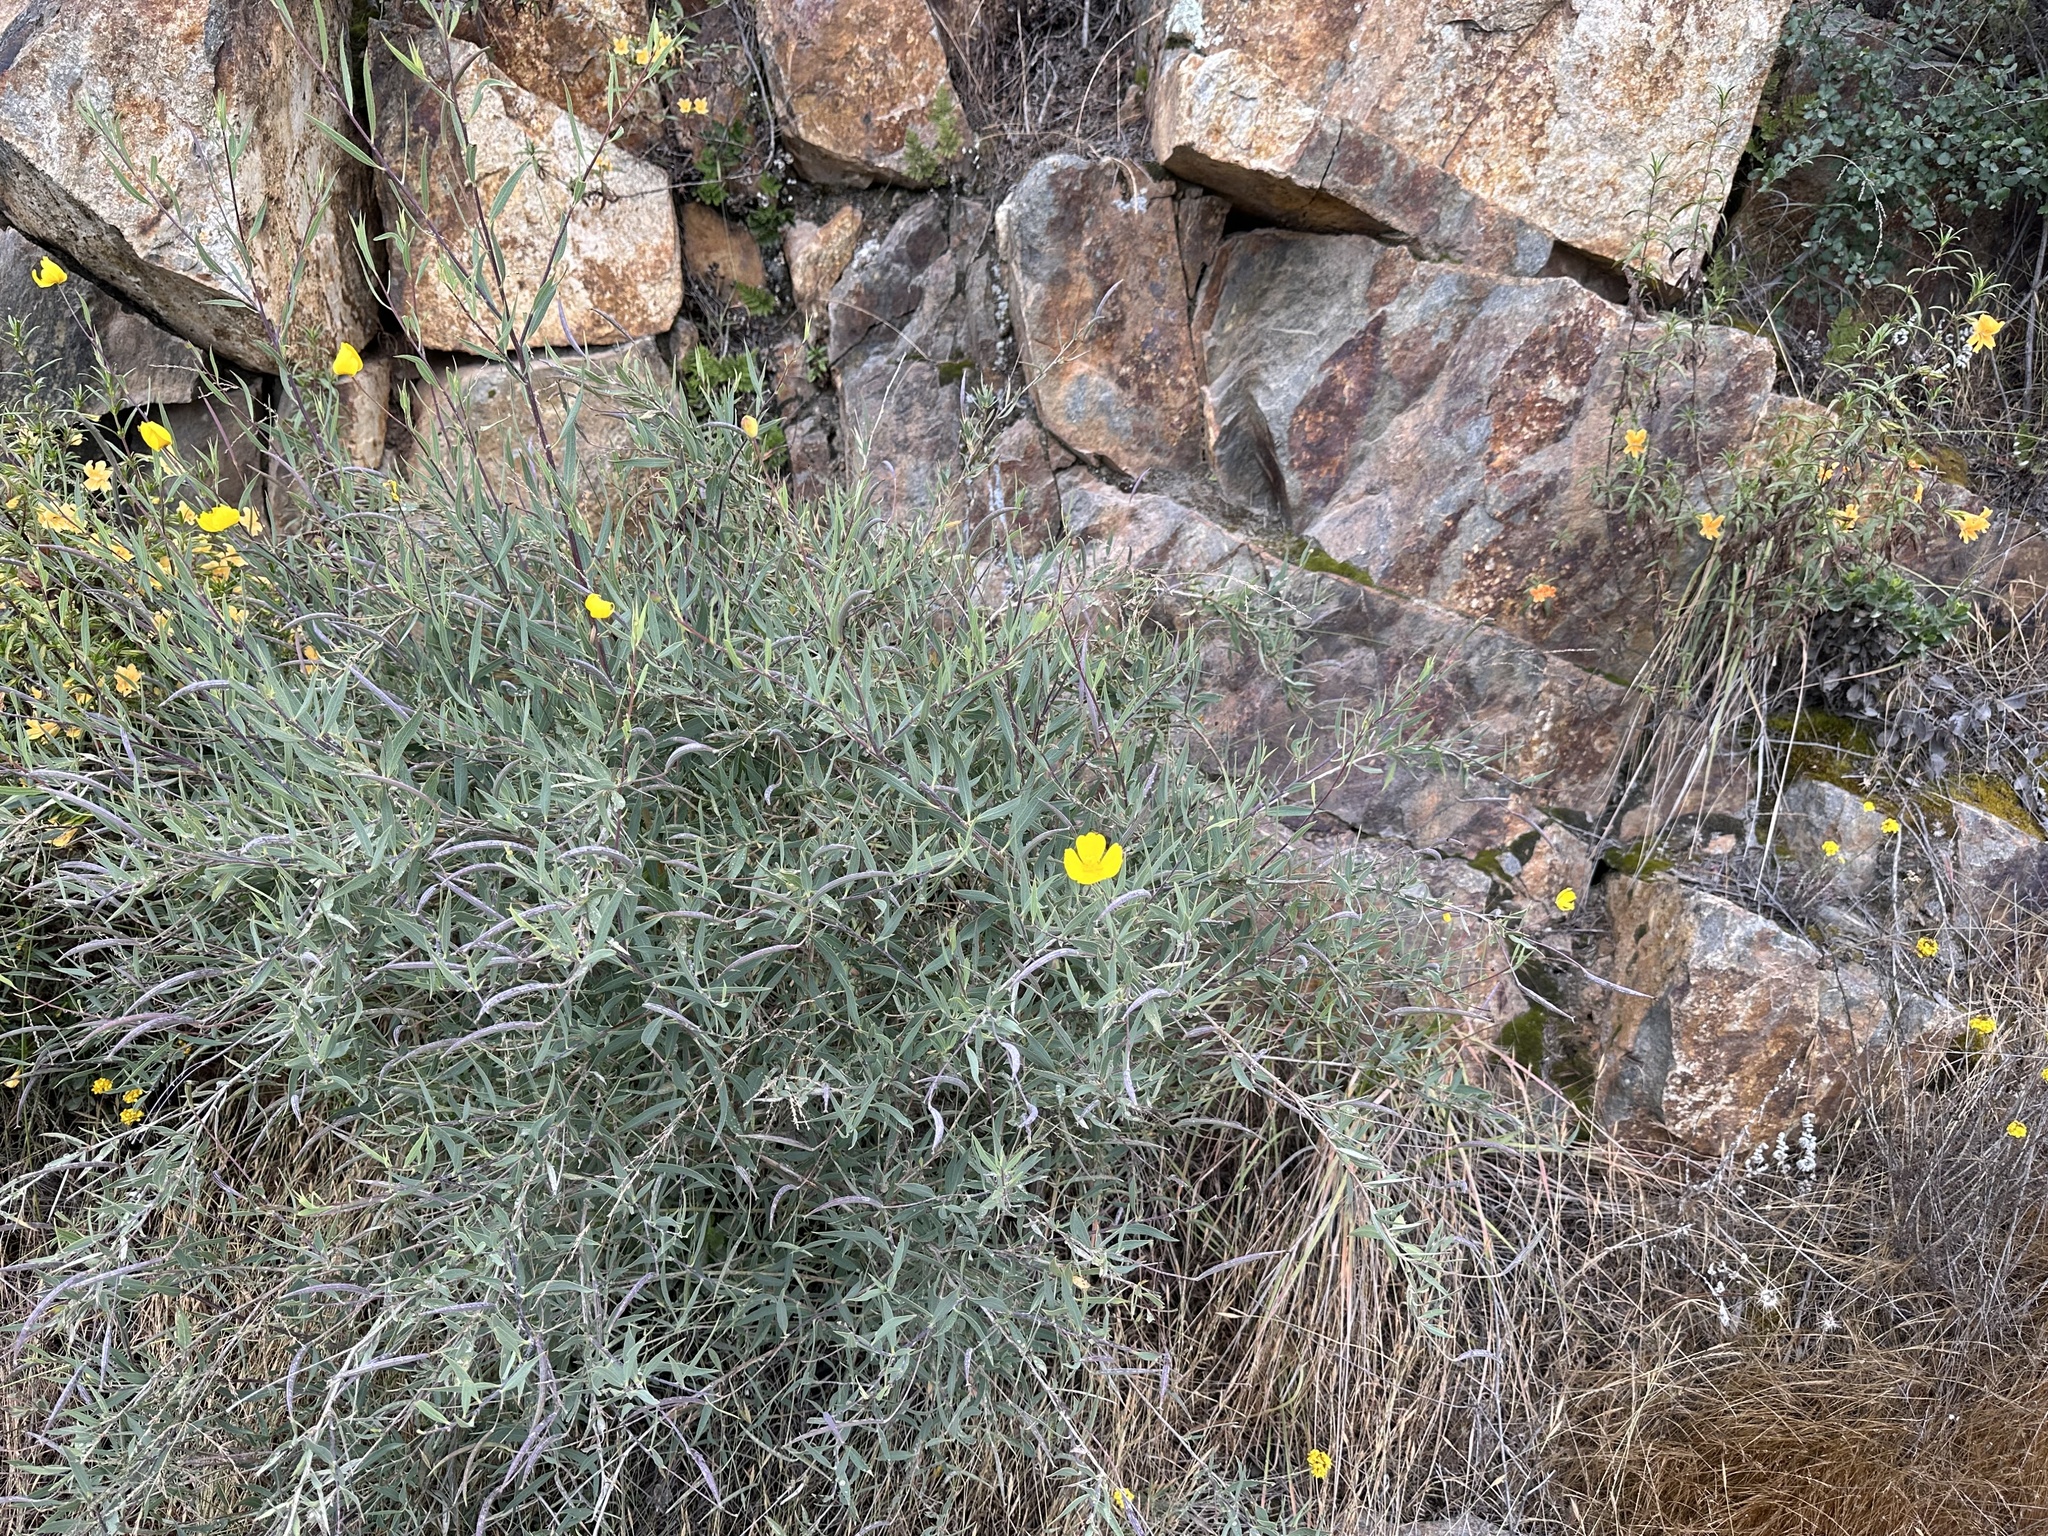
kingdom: Plantae
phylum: Tracheophyta
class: Magnoliopsida
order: Ranunculales
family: Papaveraceae
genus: Dendromecon
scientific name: Dendromecon rigida
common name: Tree poppy
